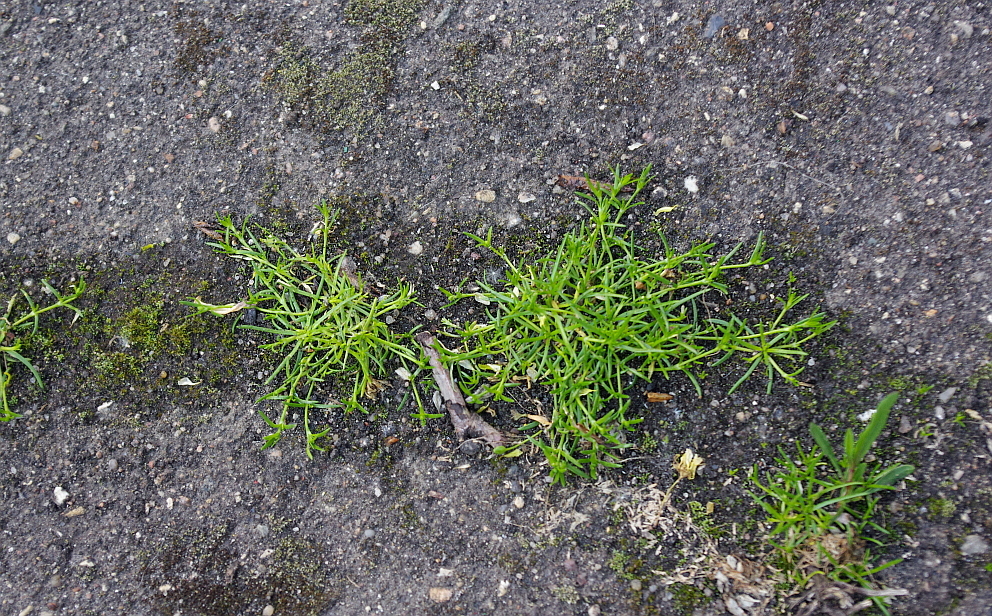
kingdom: Plantae
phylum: Tracheophyta
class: Magnoliopsida
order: Caryophyllales
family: Caryophyllaceae
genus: Sagina
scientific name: Sagina procumbens
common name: Procumbent pearlwort
